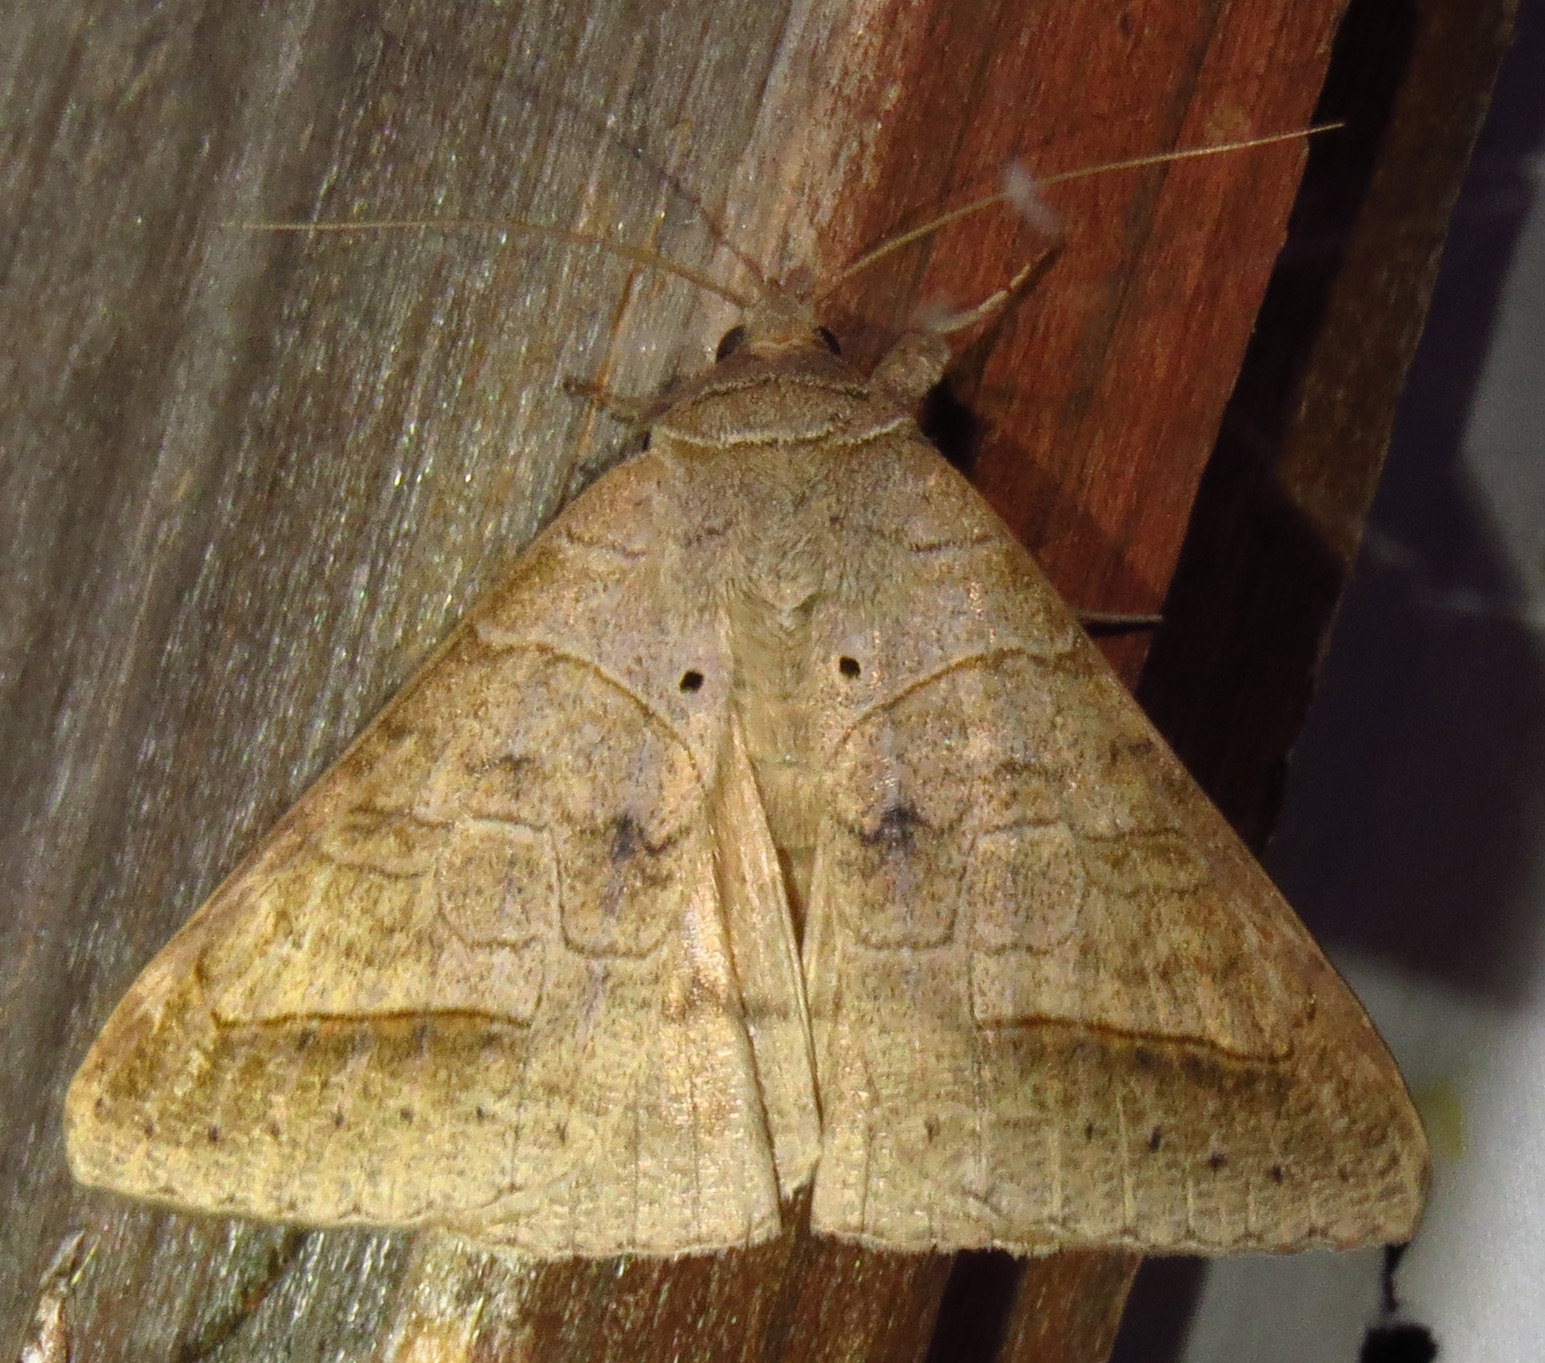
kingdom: Animalia
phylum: Arthropoda
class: Insecta
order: Lepidoptera
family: Erebidae
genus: Mocis
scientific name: Mocis marcida
